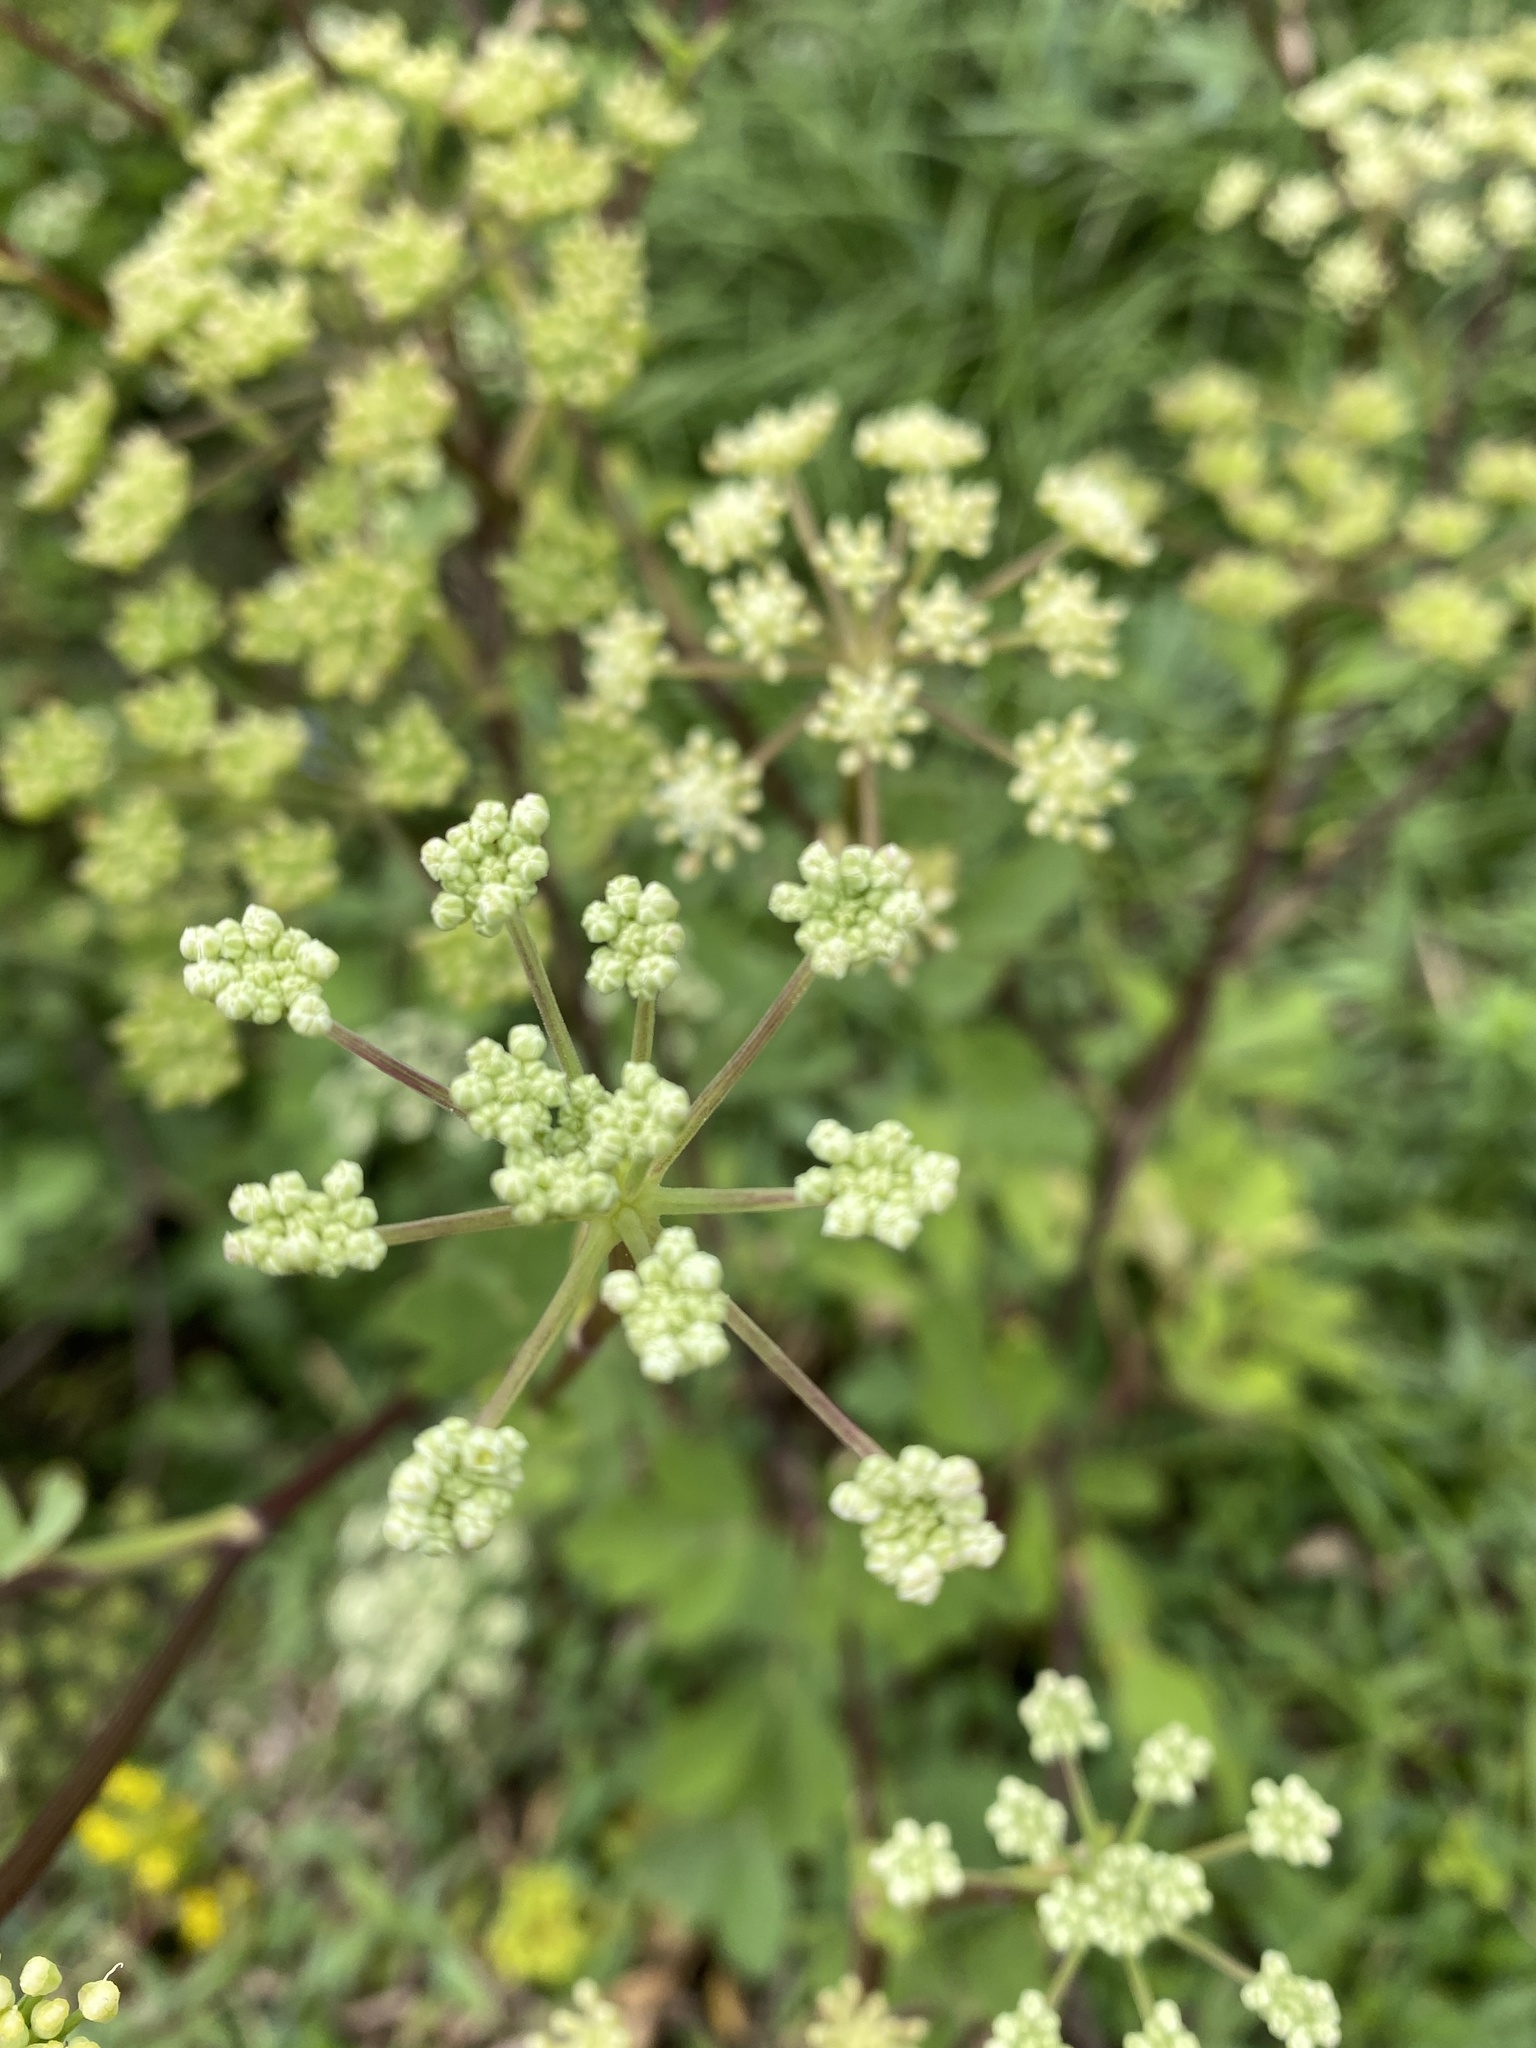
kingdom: Plantae
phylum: Tracheophyta
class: Magnoliopsida
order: Apiales
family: Apiaceae
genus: Peucedanum
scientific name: Peucedanum japonicum
